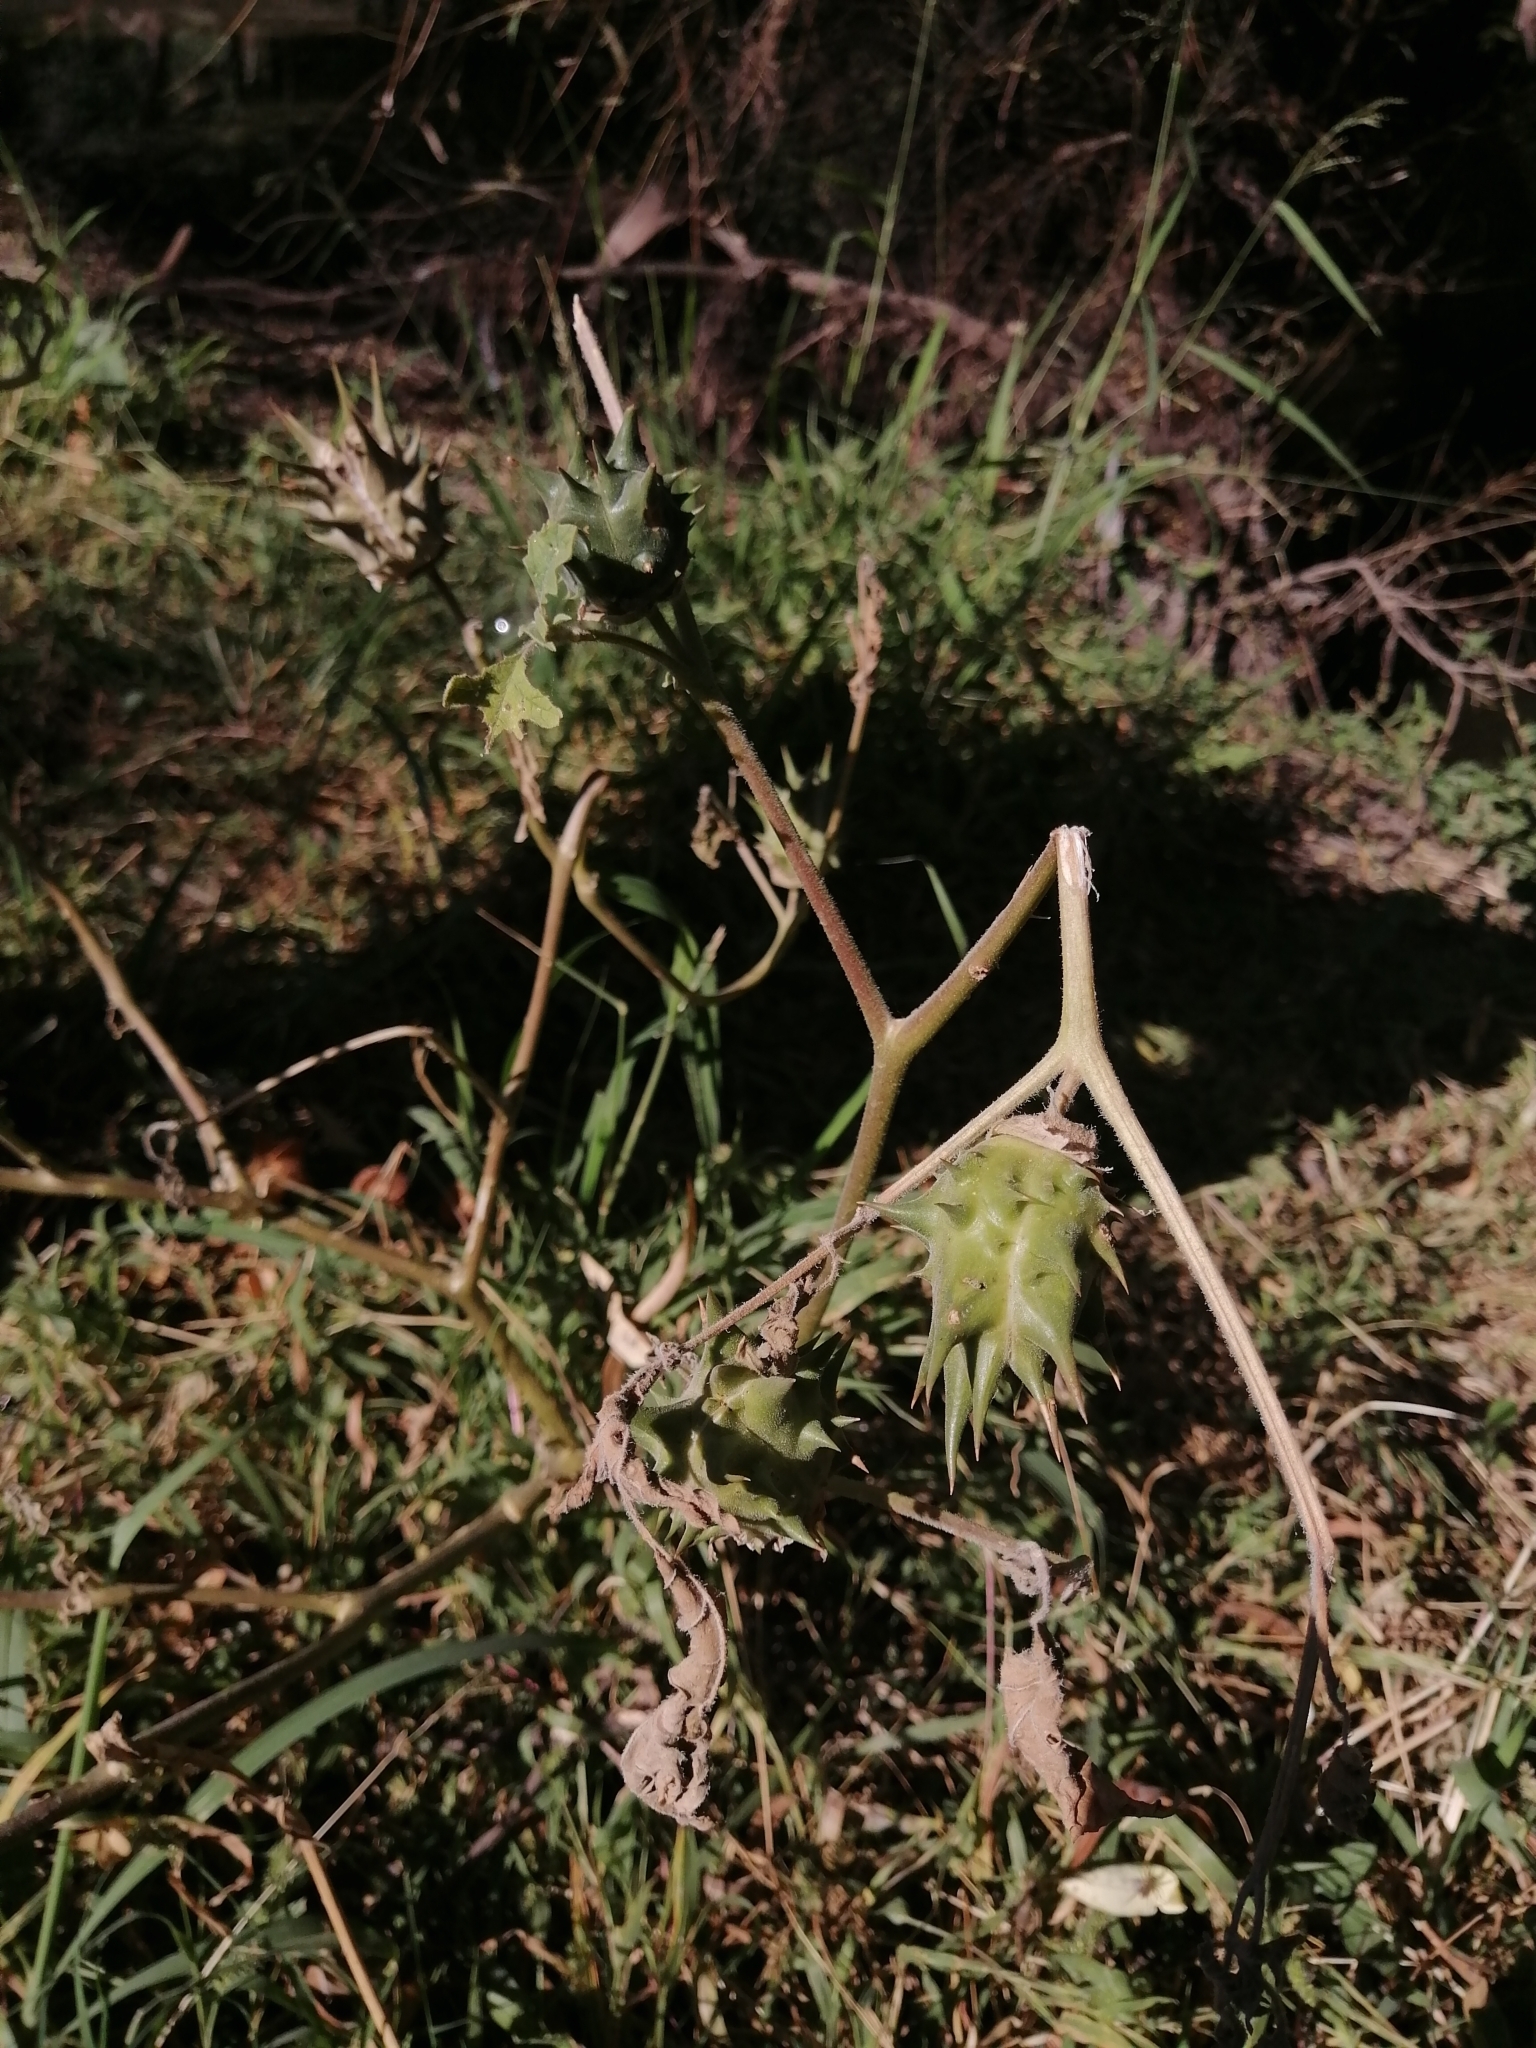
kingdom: Plantae
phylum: Tracheophyta
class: Magnoliopsida
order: Solanales
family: Solanaceae
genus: Datura
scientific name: Datura quercifolia
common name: Oak-leaf datura
